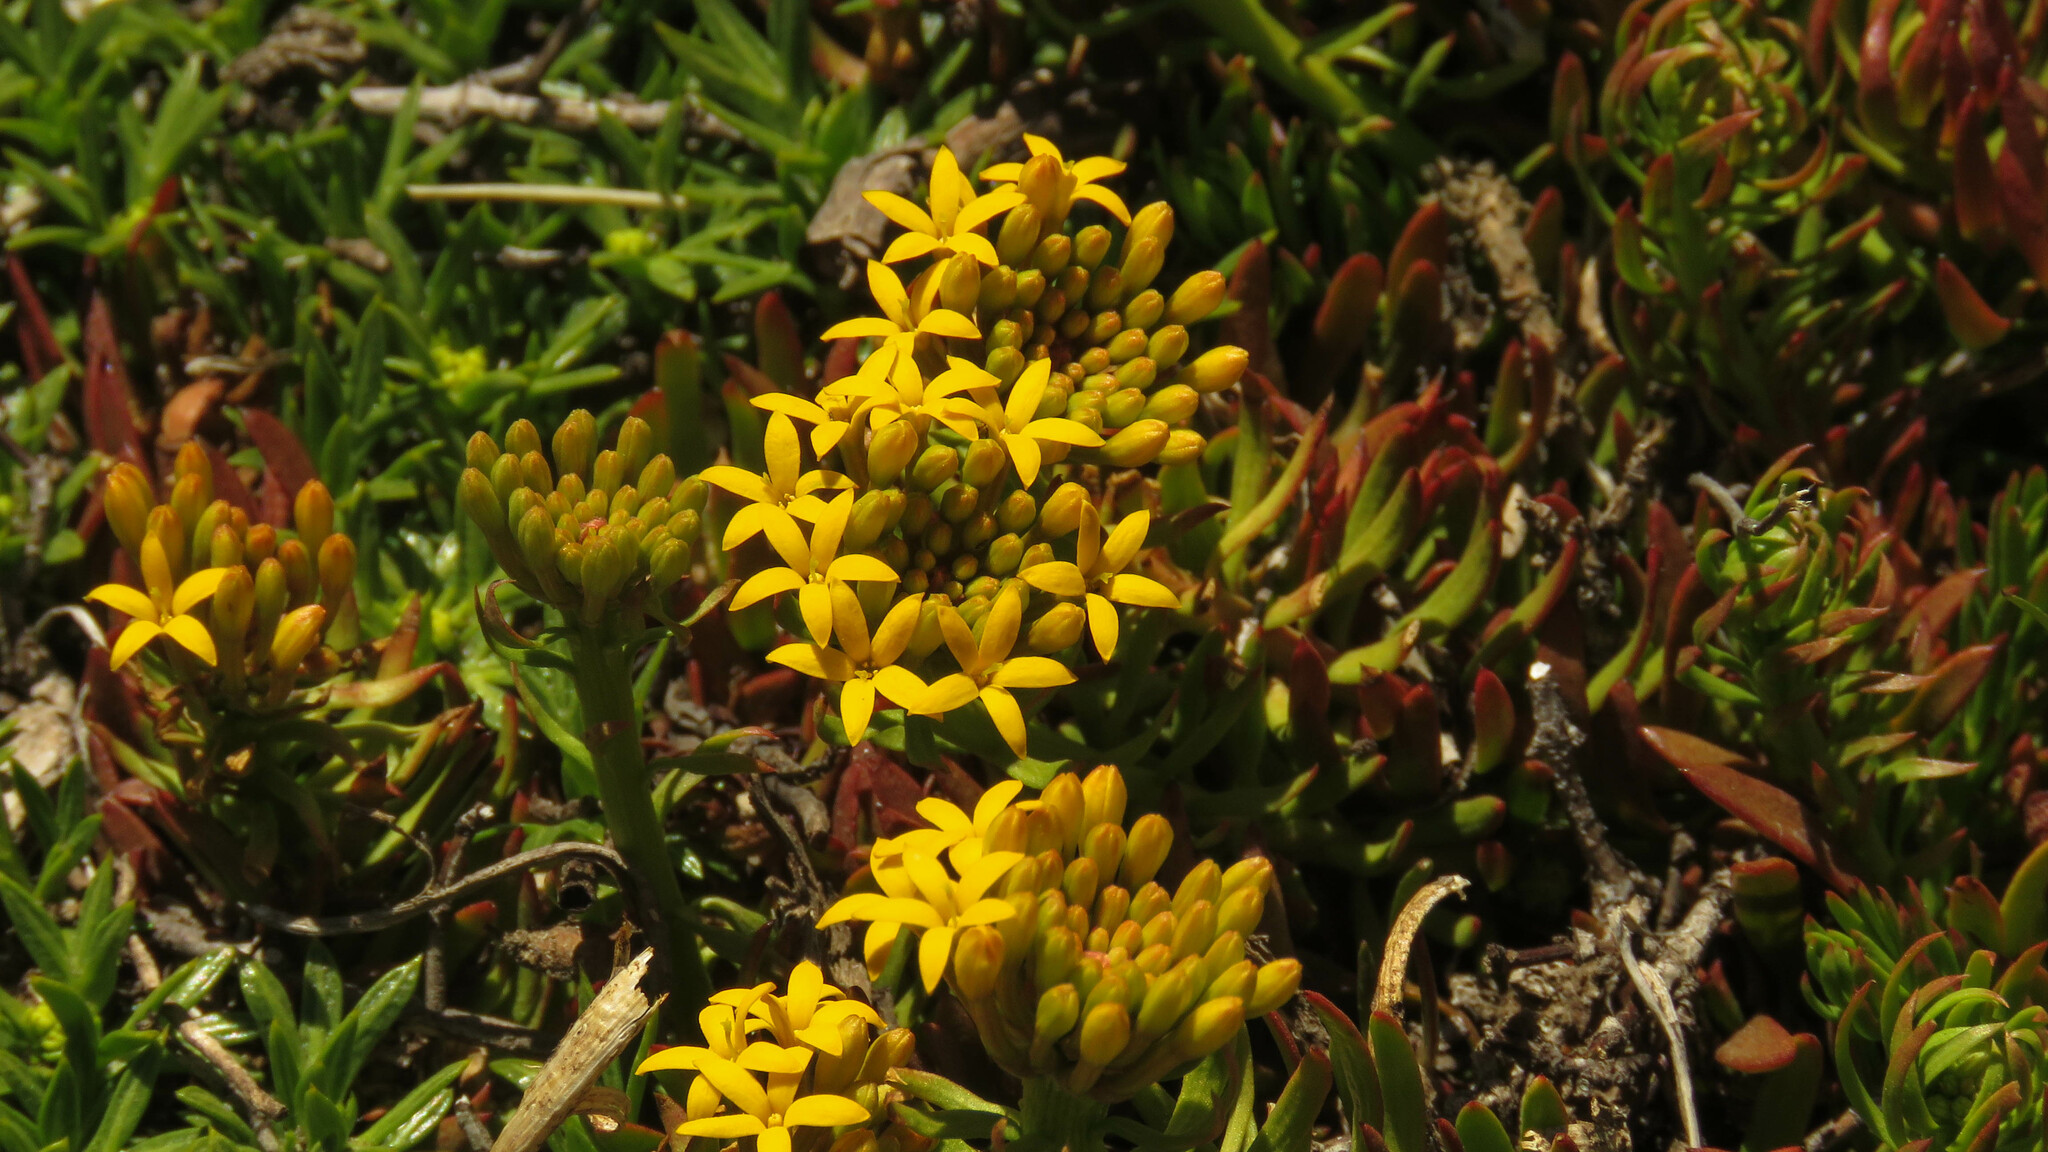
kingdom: Plantae
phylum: Tracheophyta
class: Magnoliopsida
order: Santalales
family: Schoepfiaceae
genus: Quinchamalium
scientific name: Quinchamalium chilense
